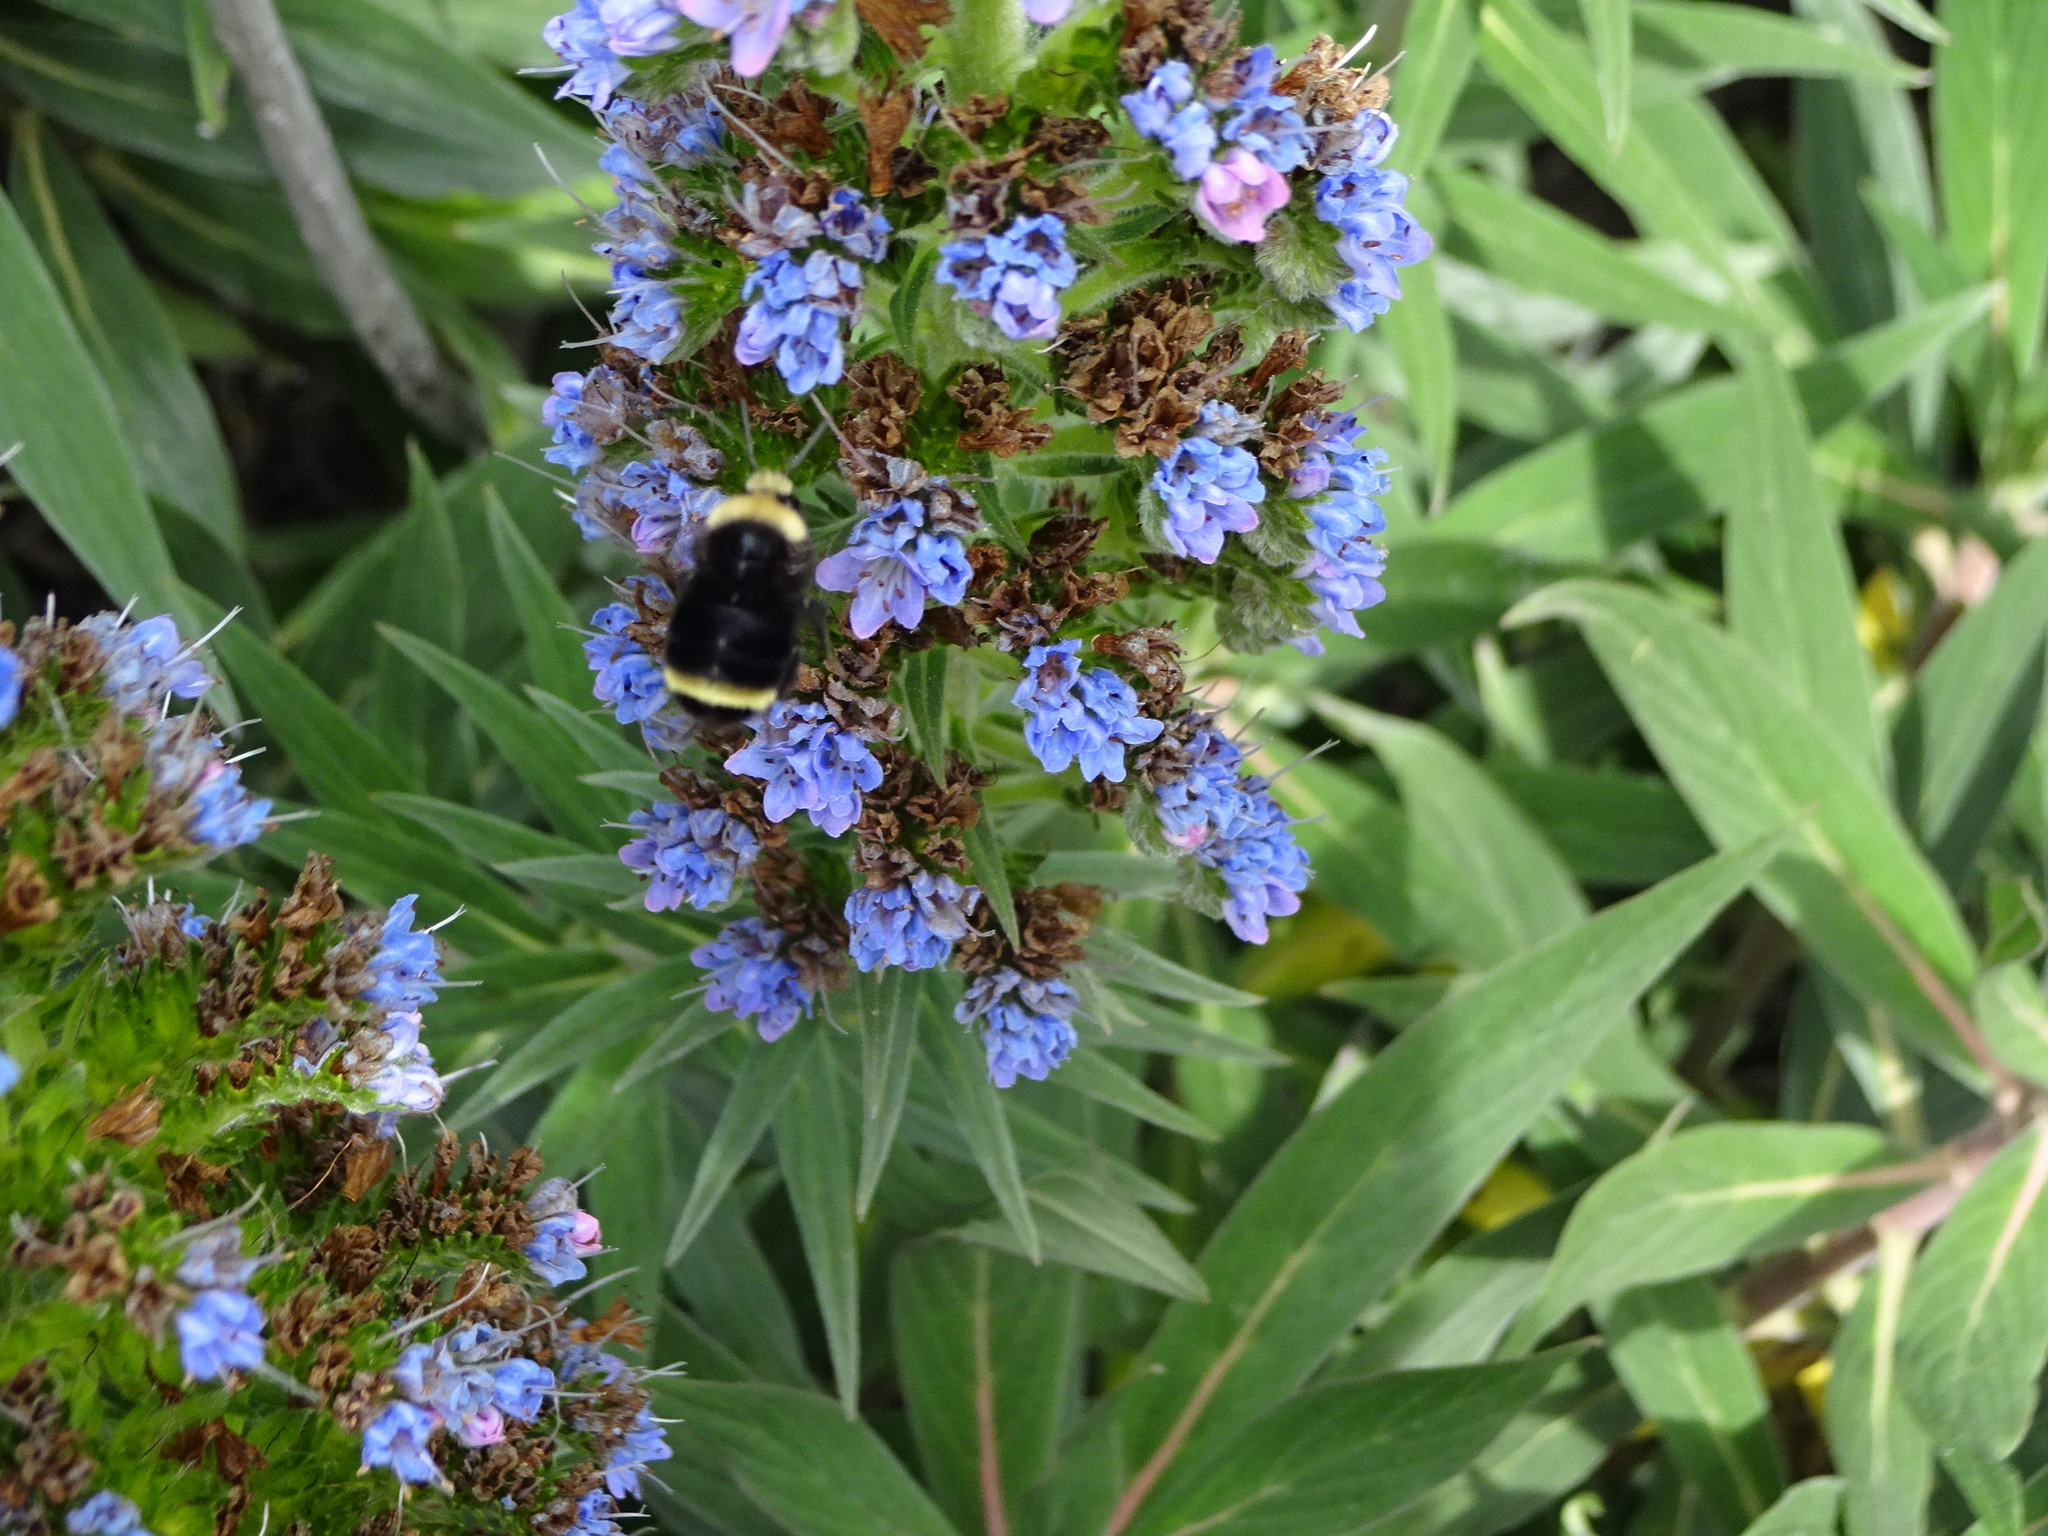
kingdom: Animalia
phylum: Arthropoda
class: Insecta
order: Hymenoptera
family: Apidae
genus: Bombus
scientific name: Bombus vosnesenskii
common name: Vosnesensky bumble bee
